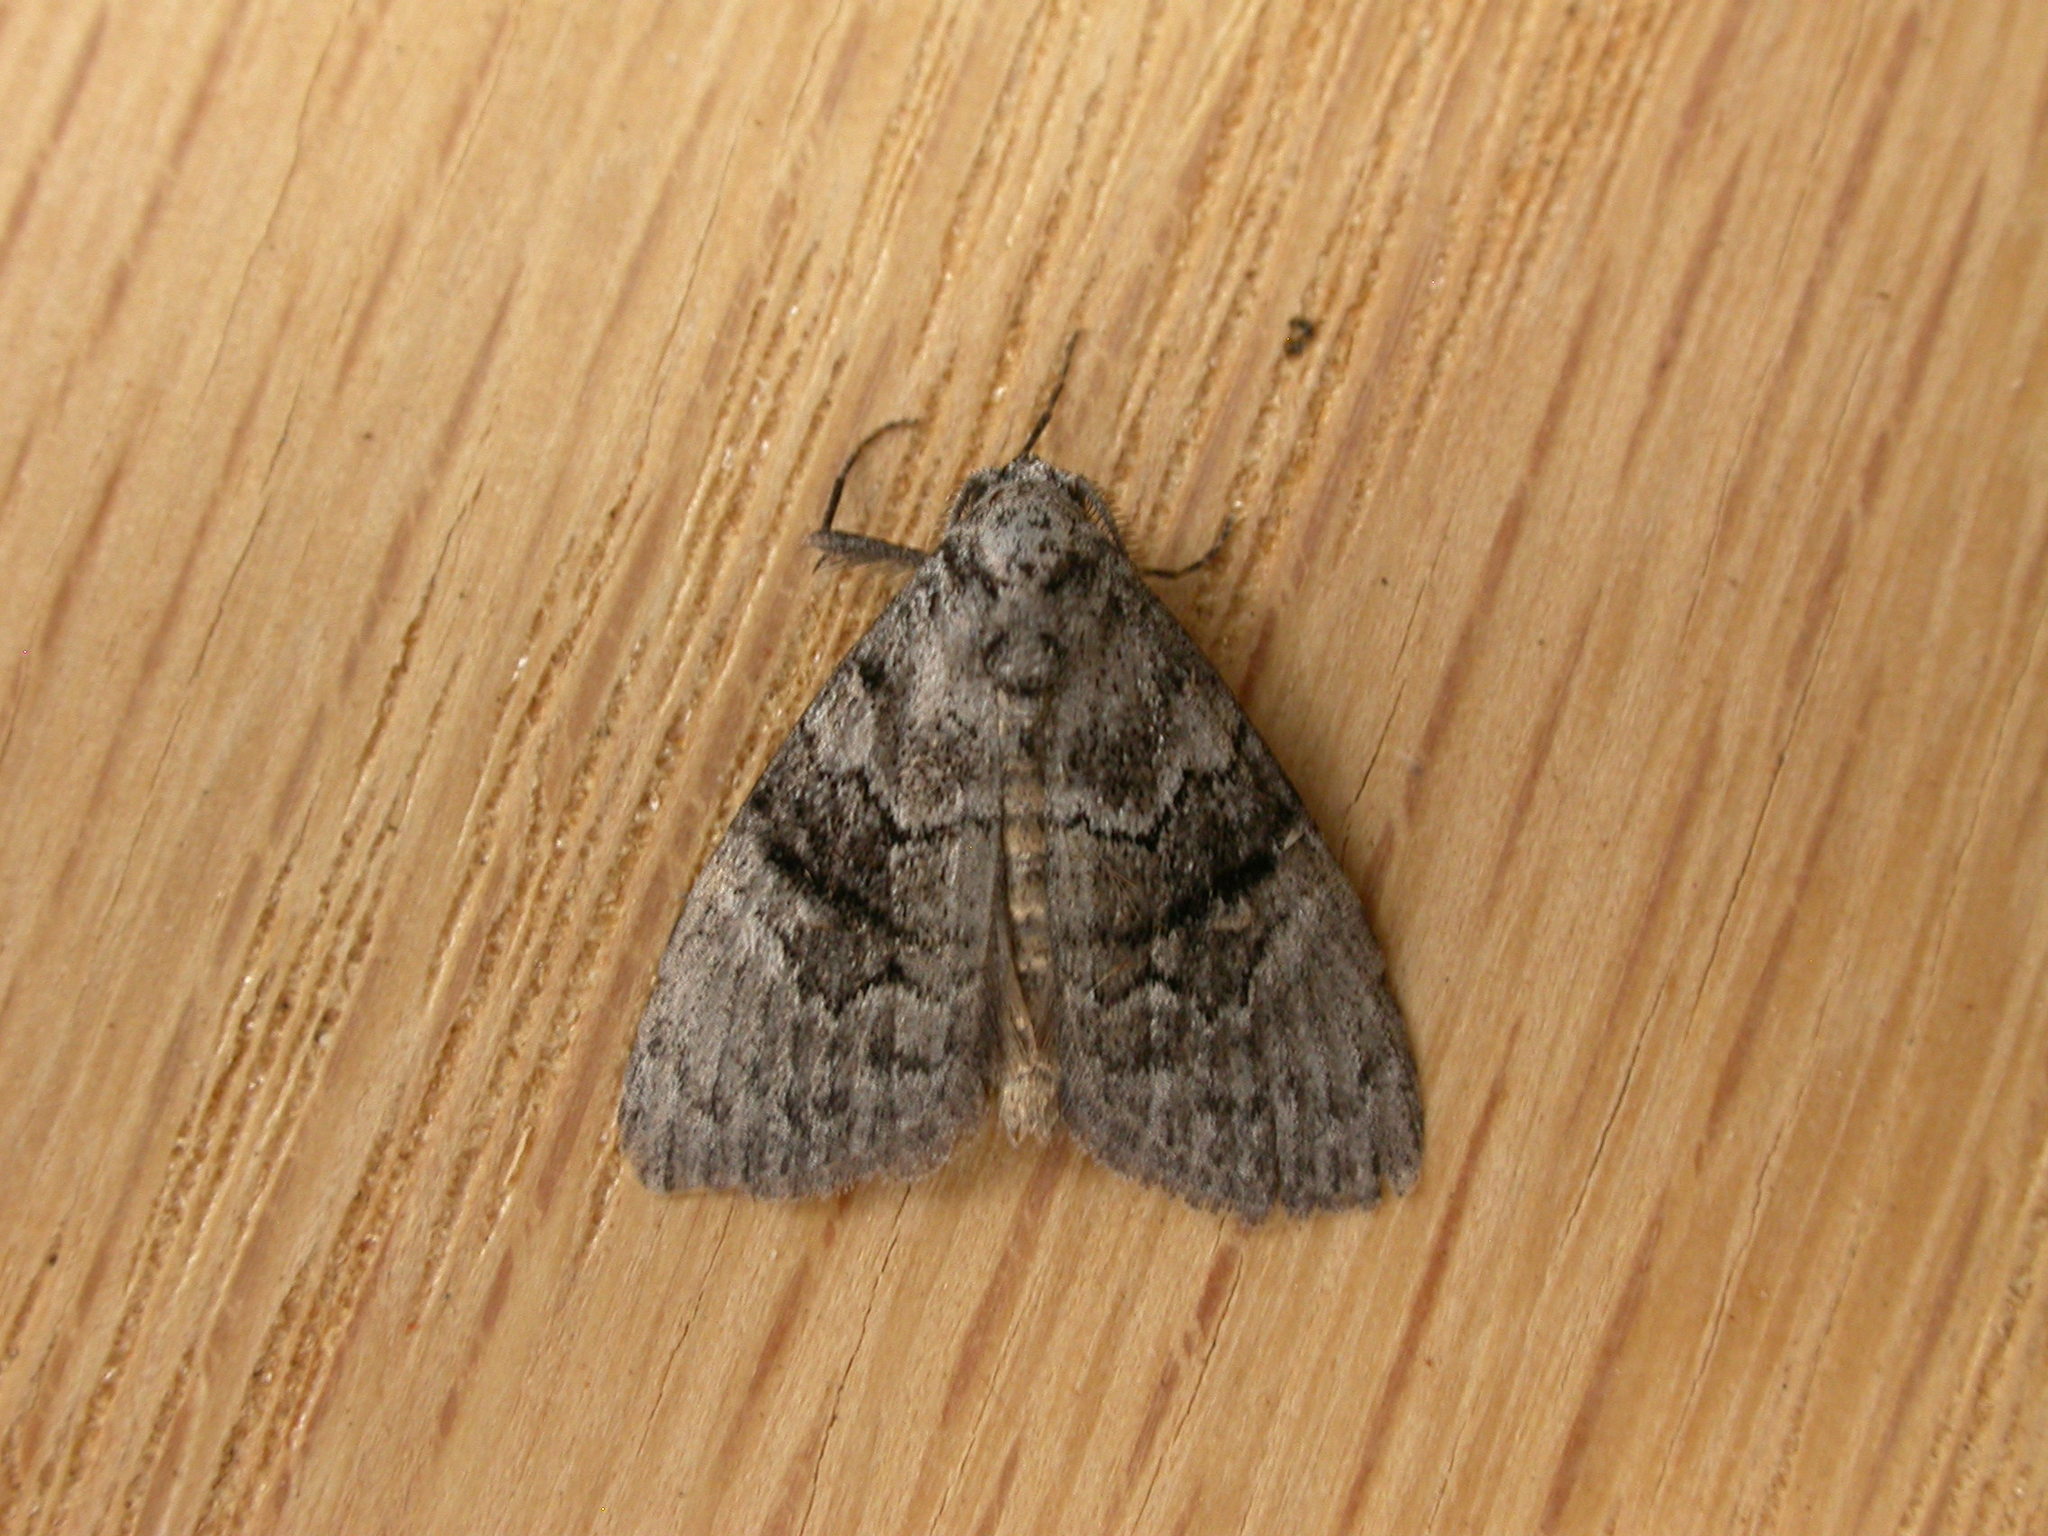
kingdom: Animalia
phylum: Arthropoda
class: Insecta
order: Lepidoptera
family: Nolidae
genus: Uraba
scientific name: Uraba lugens
